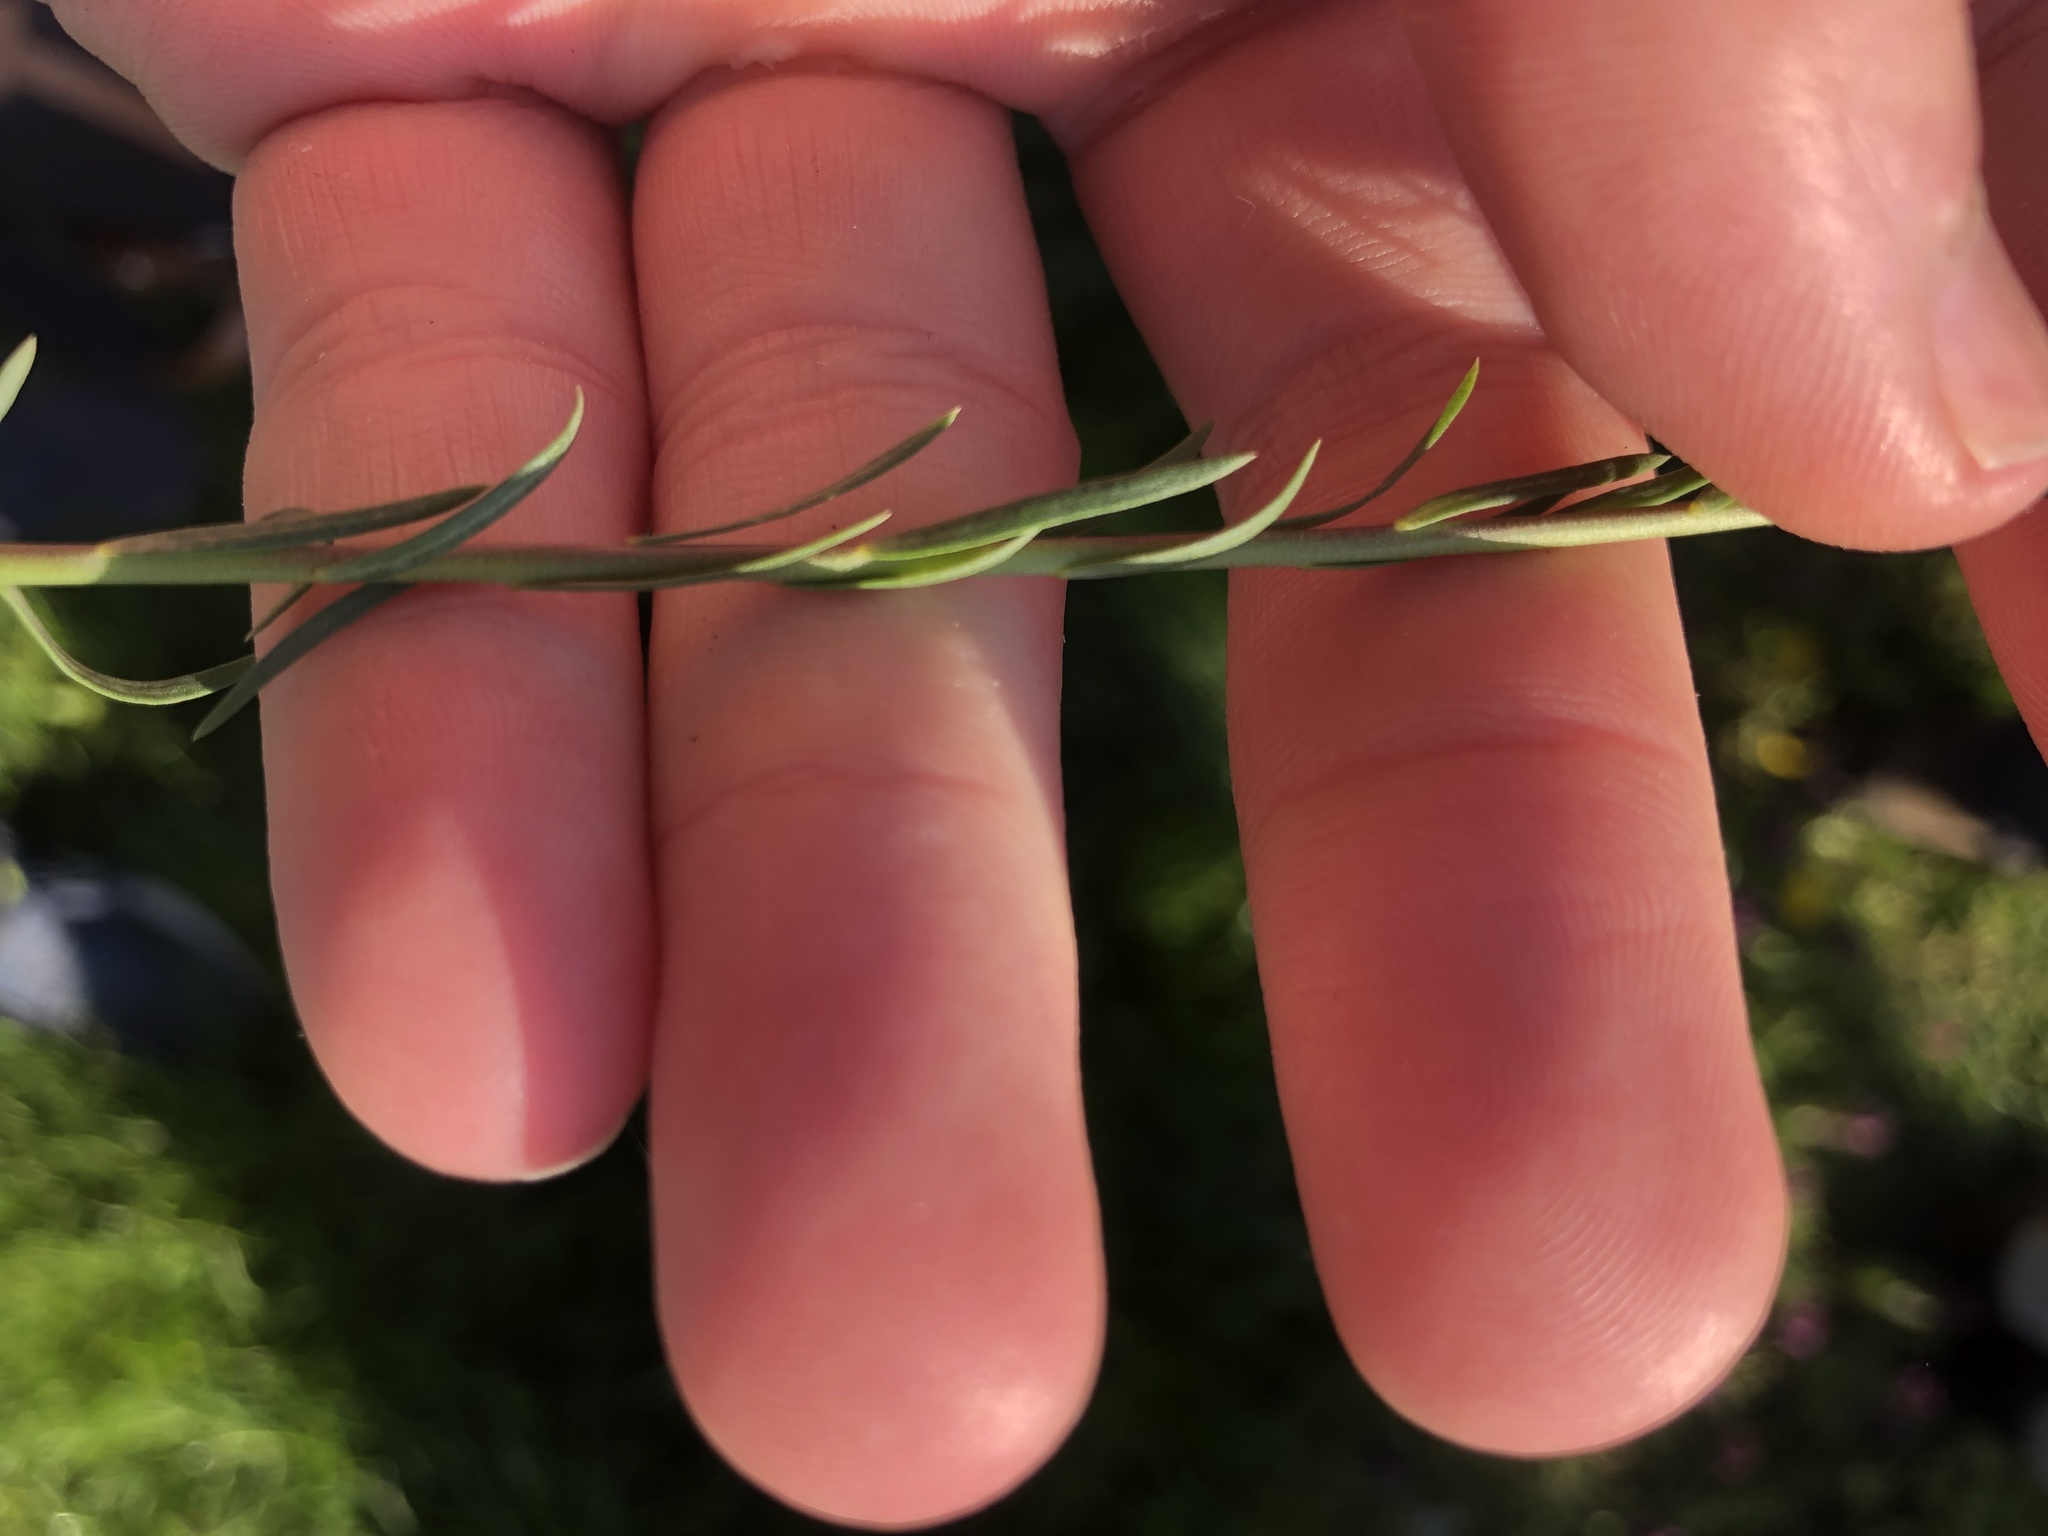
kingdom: Plantae
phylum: Tracheophyta
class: Magnoliopsida
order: Malpighiales
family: Linaceae
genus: Linum
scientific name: Linum austriacum
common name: Austrian flax
